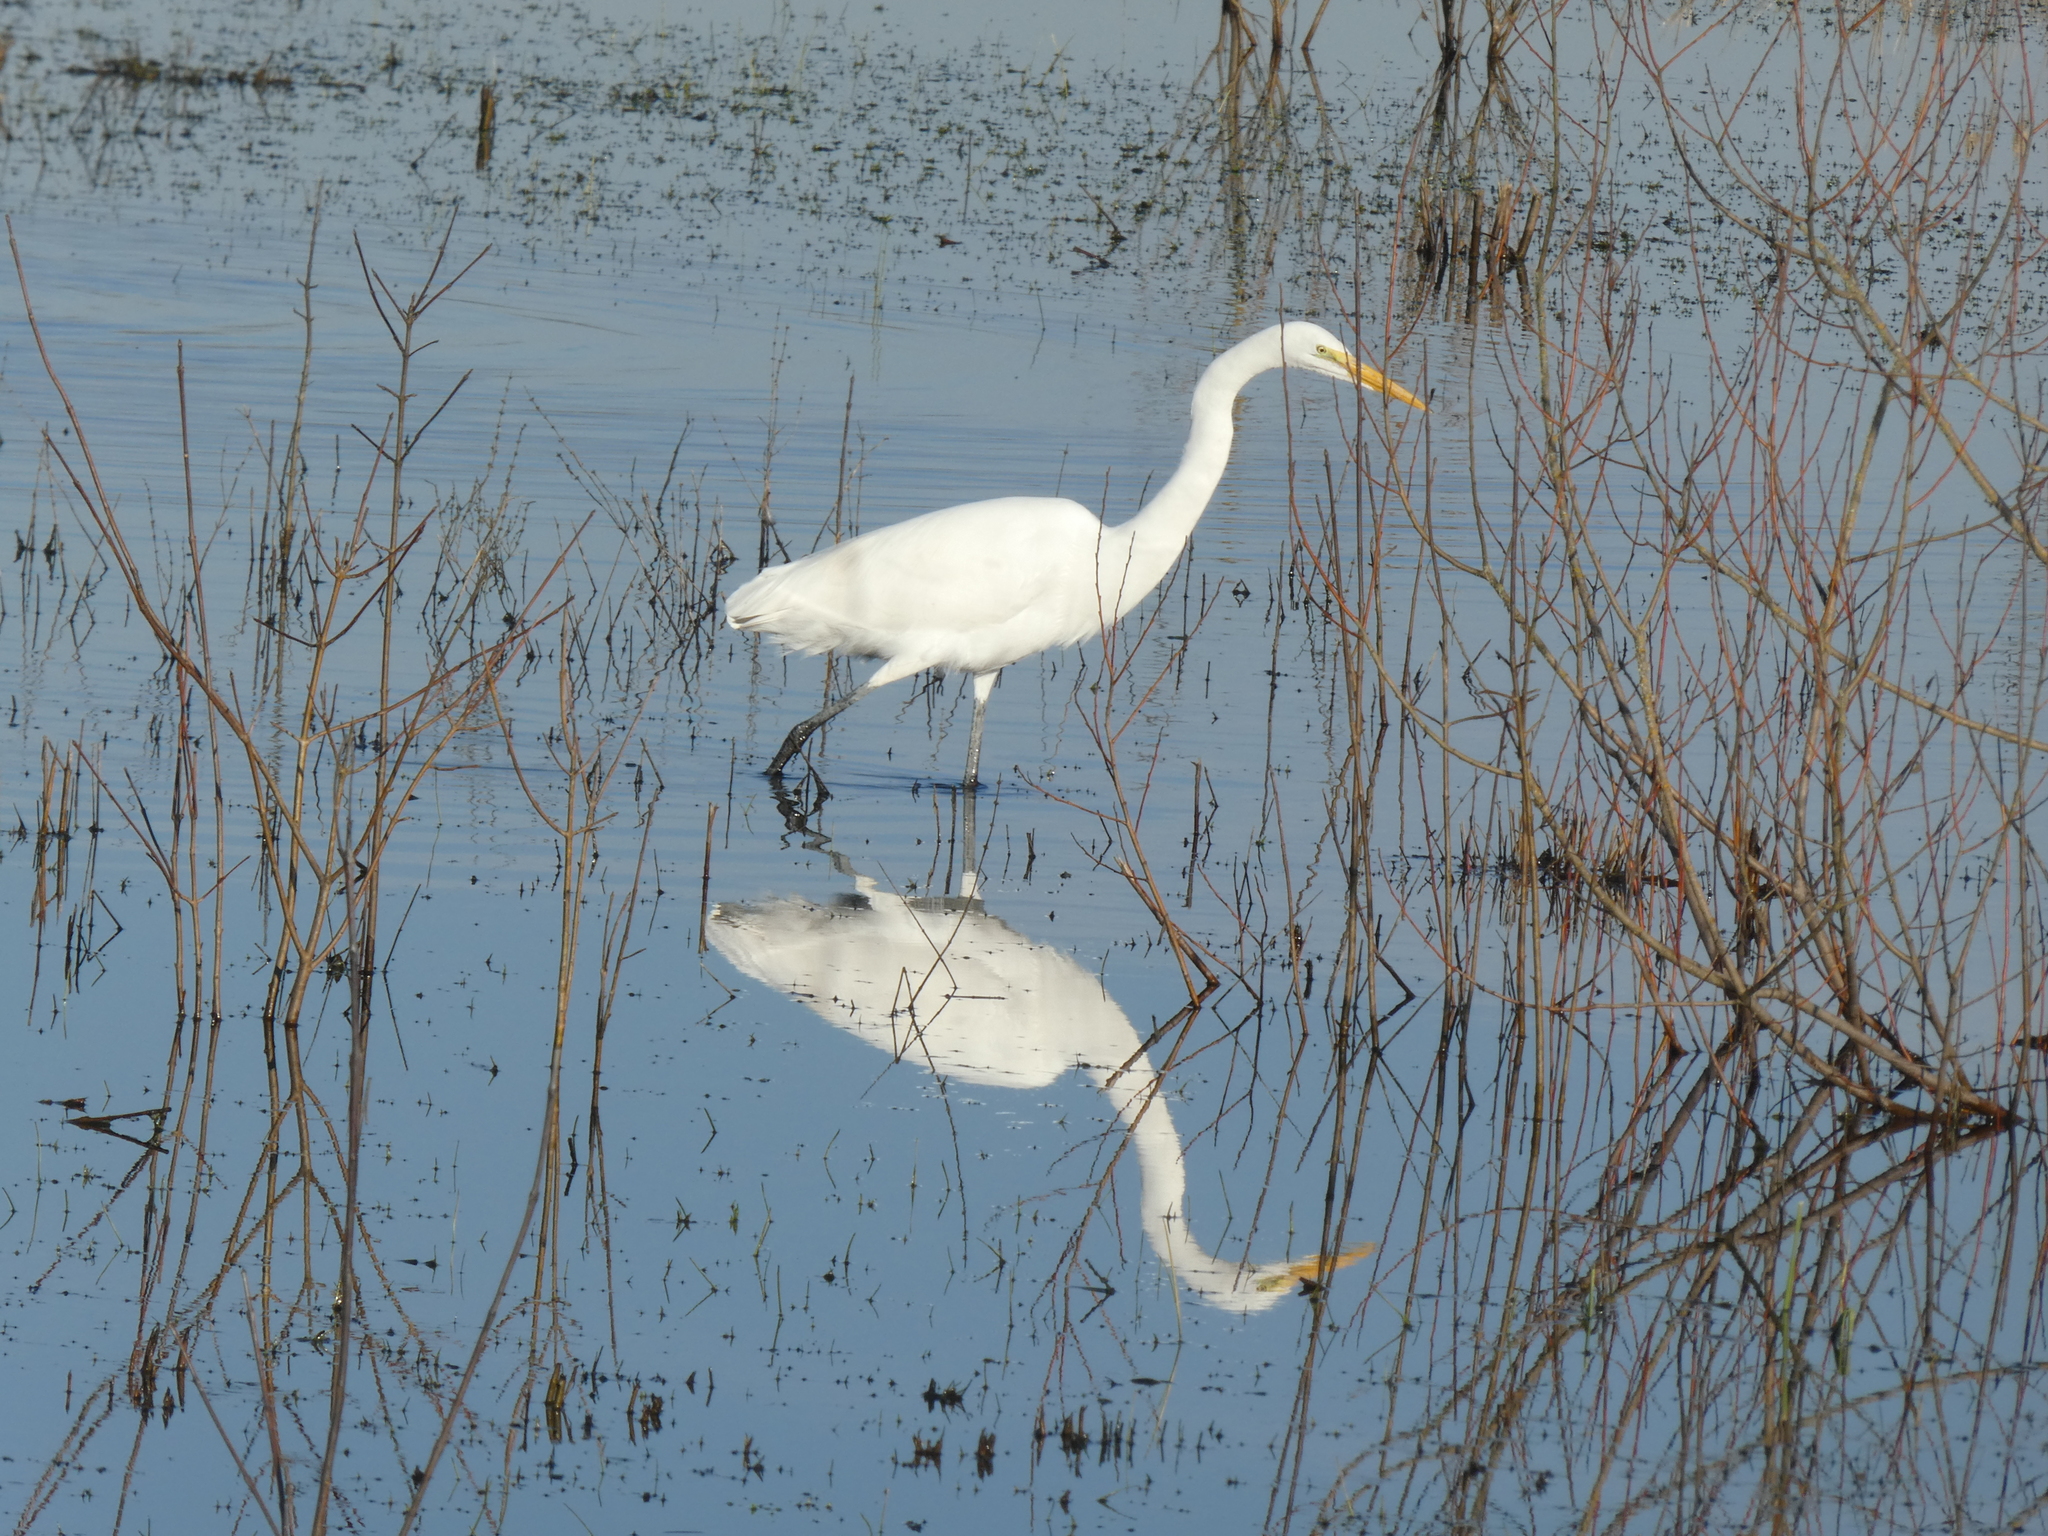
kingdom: Animalia
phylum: Chordata
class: Aves
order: Pelecaniformes
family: Ardeidae
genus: Ardea
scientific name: Ardea alba
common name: Great egret
